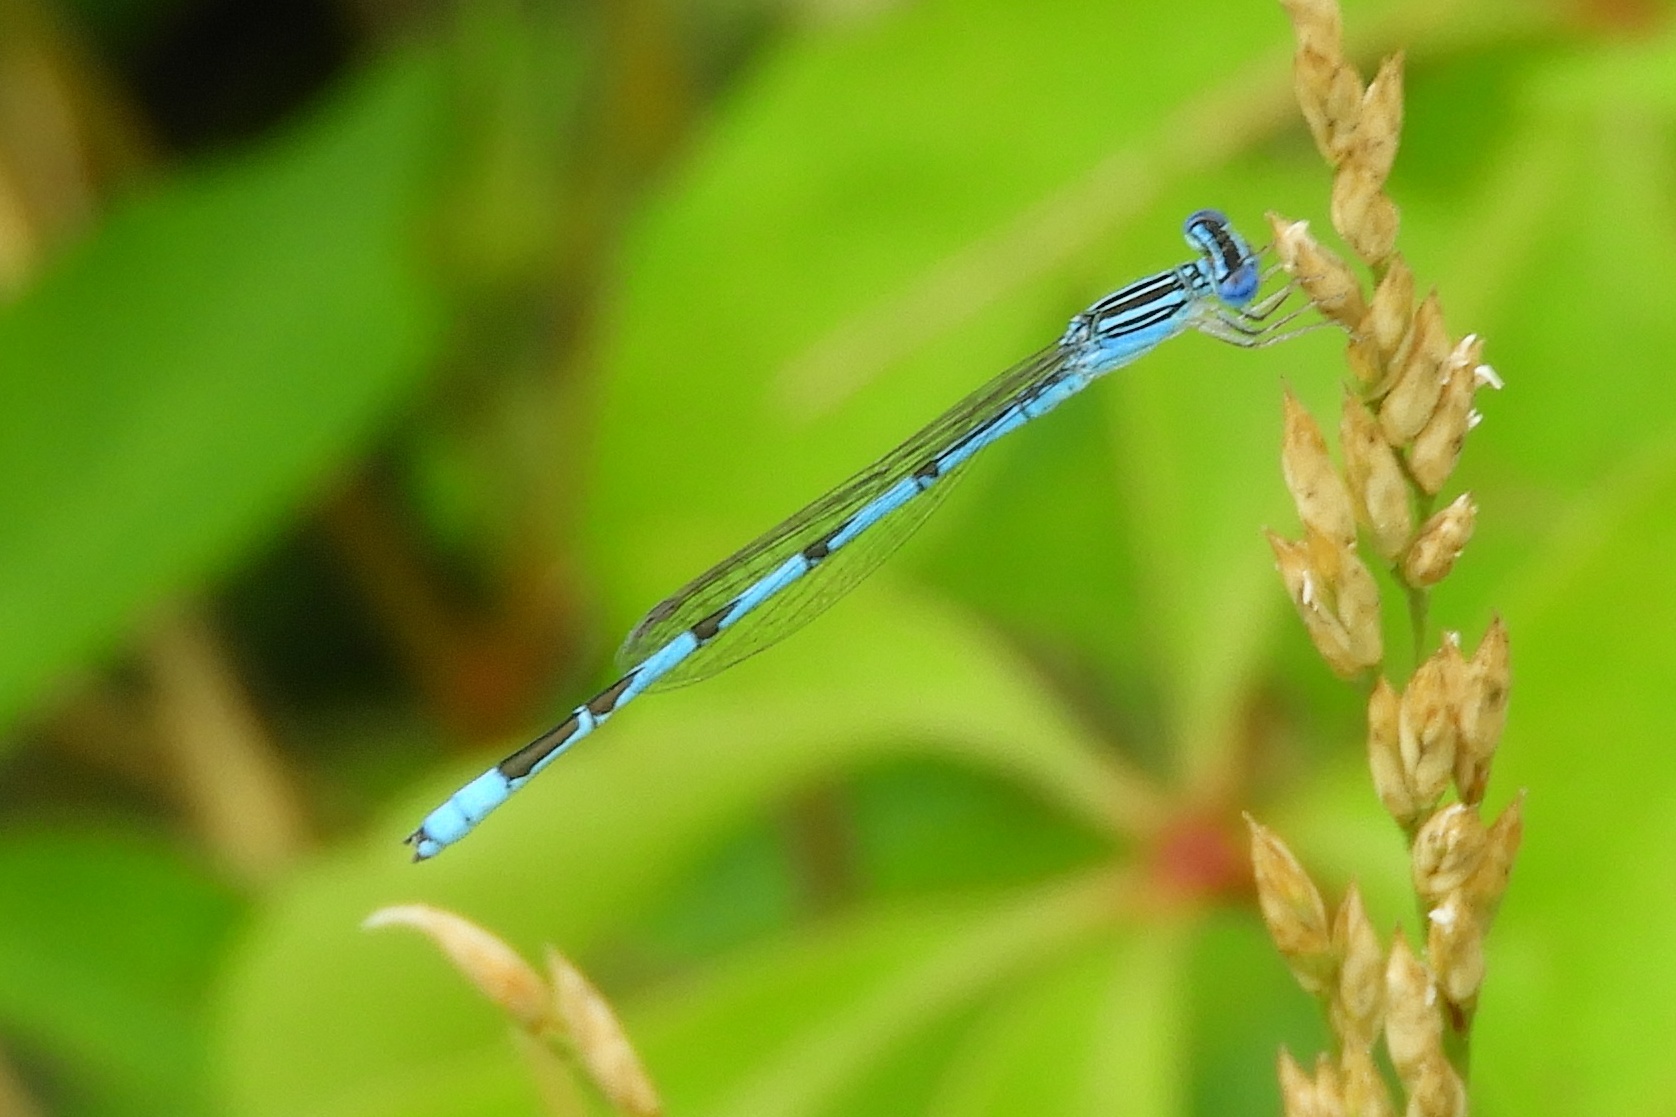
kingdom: Animalia
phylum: Arthropoda
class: Insecta
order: Odonata
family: Coenagrionidae
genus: Enallagma
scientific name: Enallagma basidens
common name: Double-striped bluet
